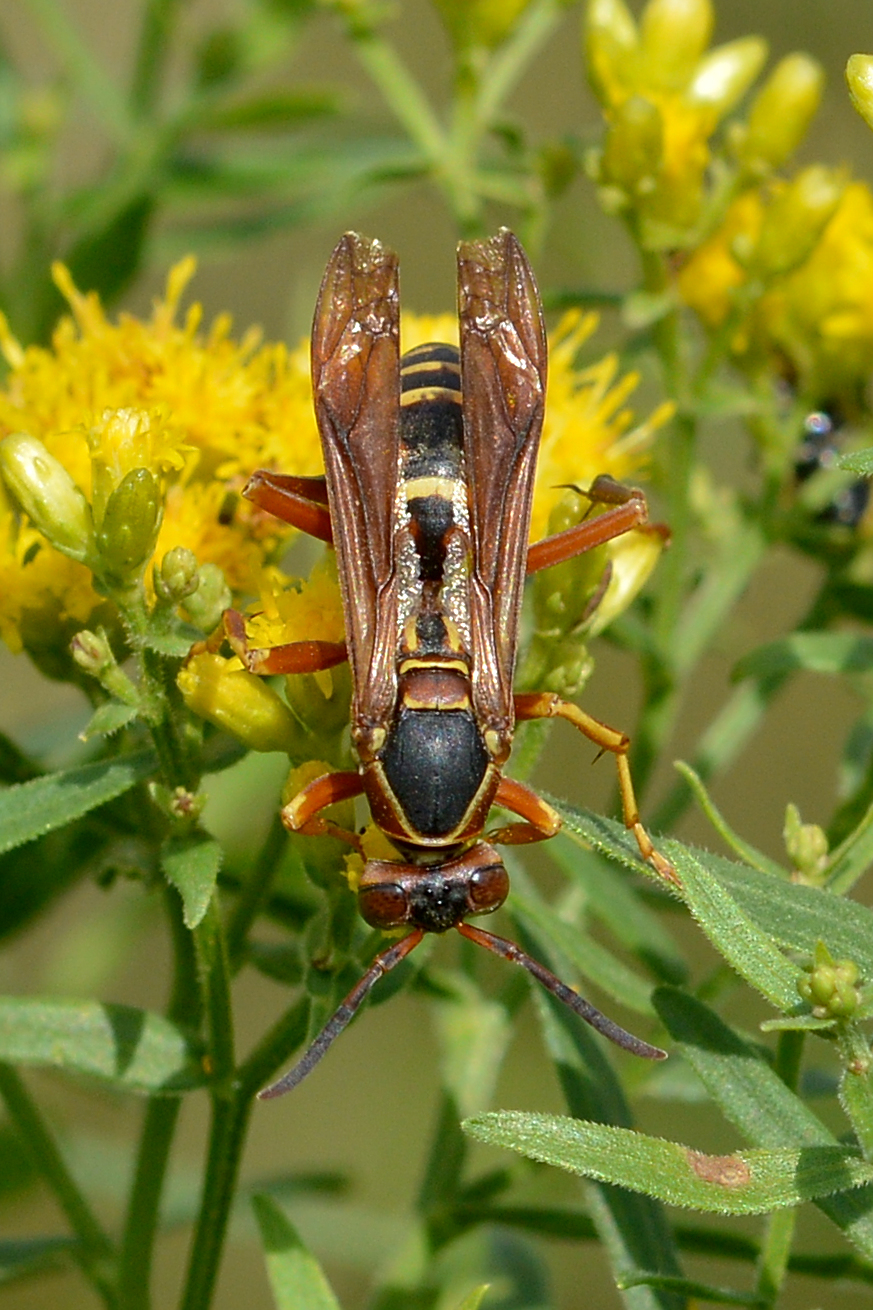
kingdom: Animalia
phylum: Arthropoda
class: Insecta
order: Hymenoptera
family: Eumenidae
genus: Polistes
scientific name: Polistes fuscatus
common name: Dark paper wasp
